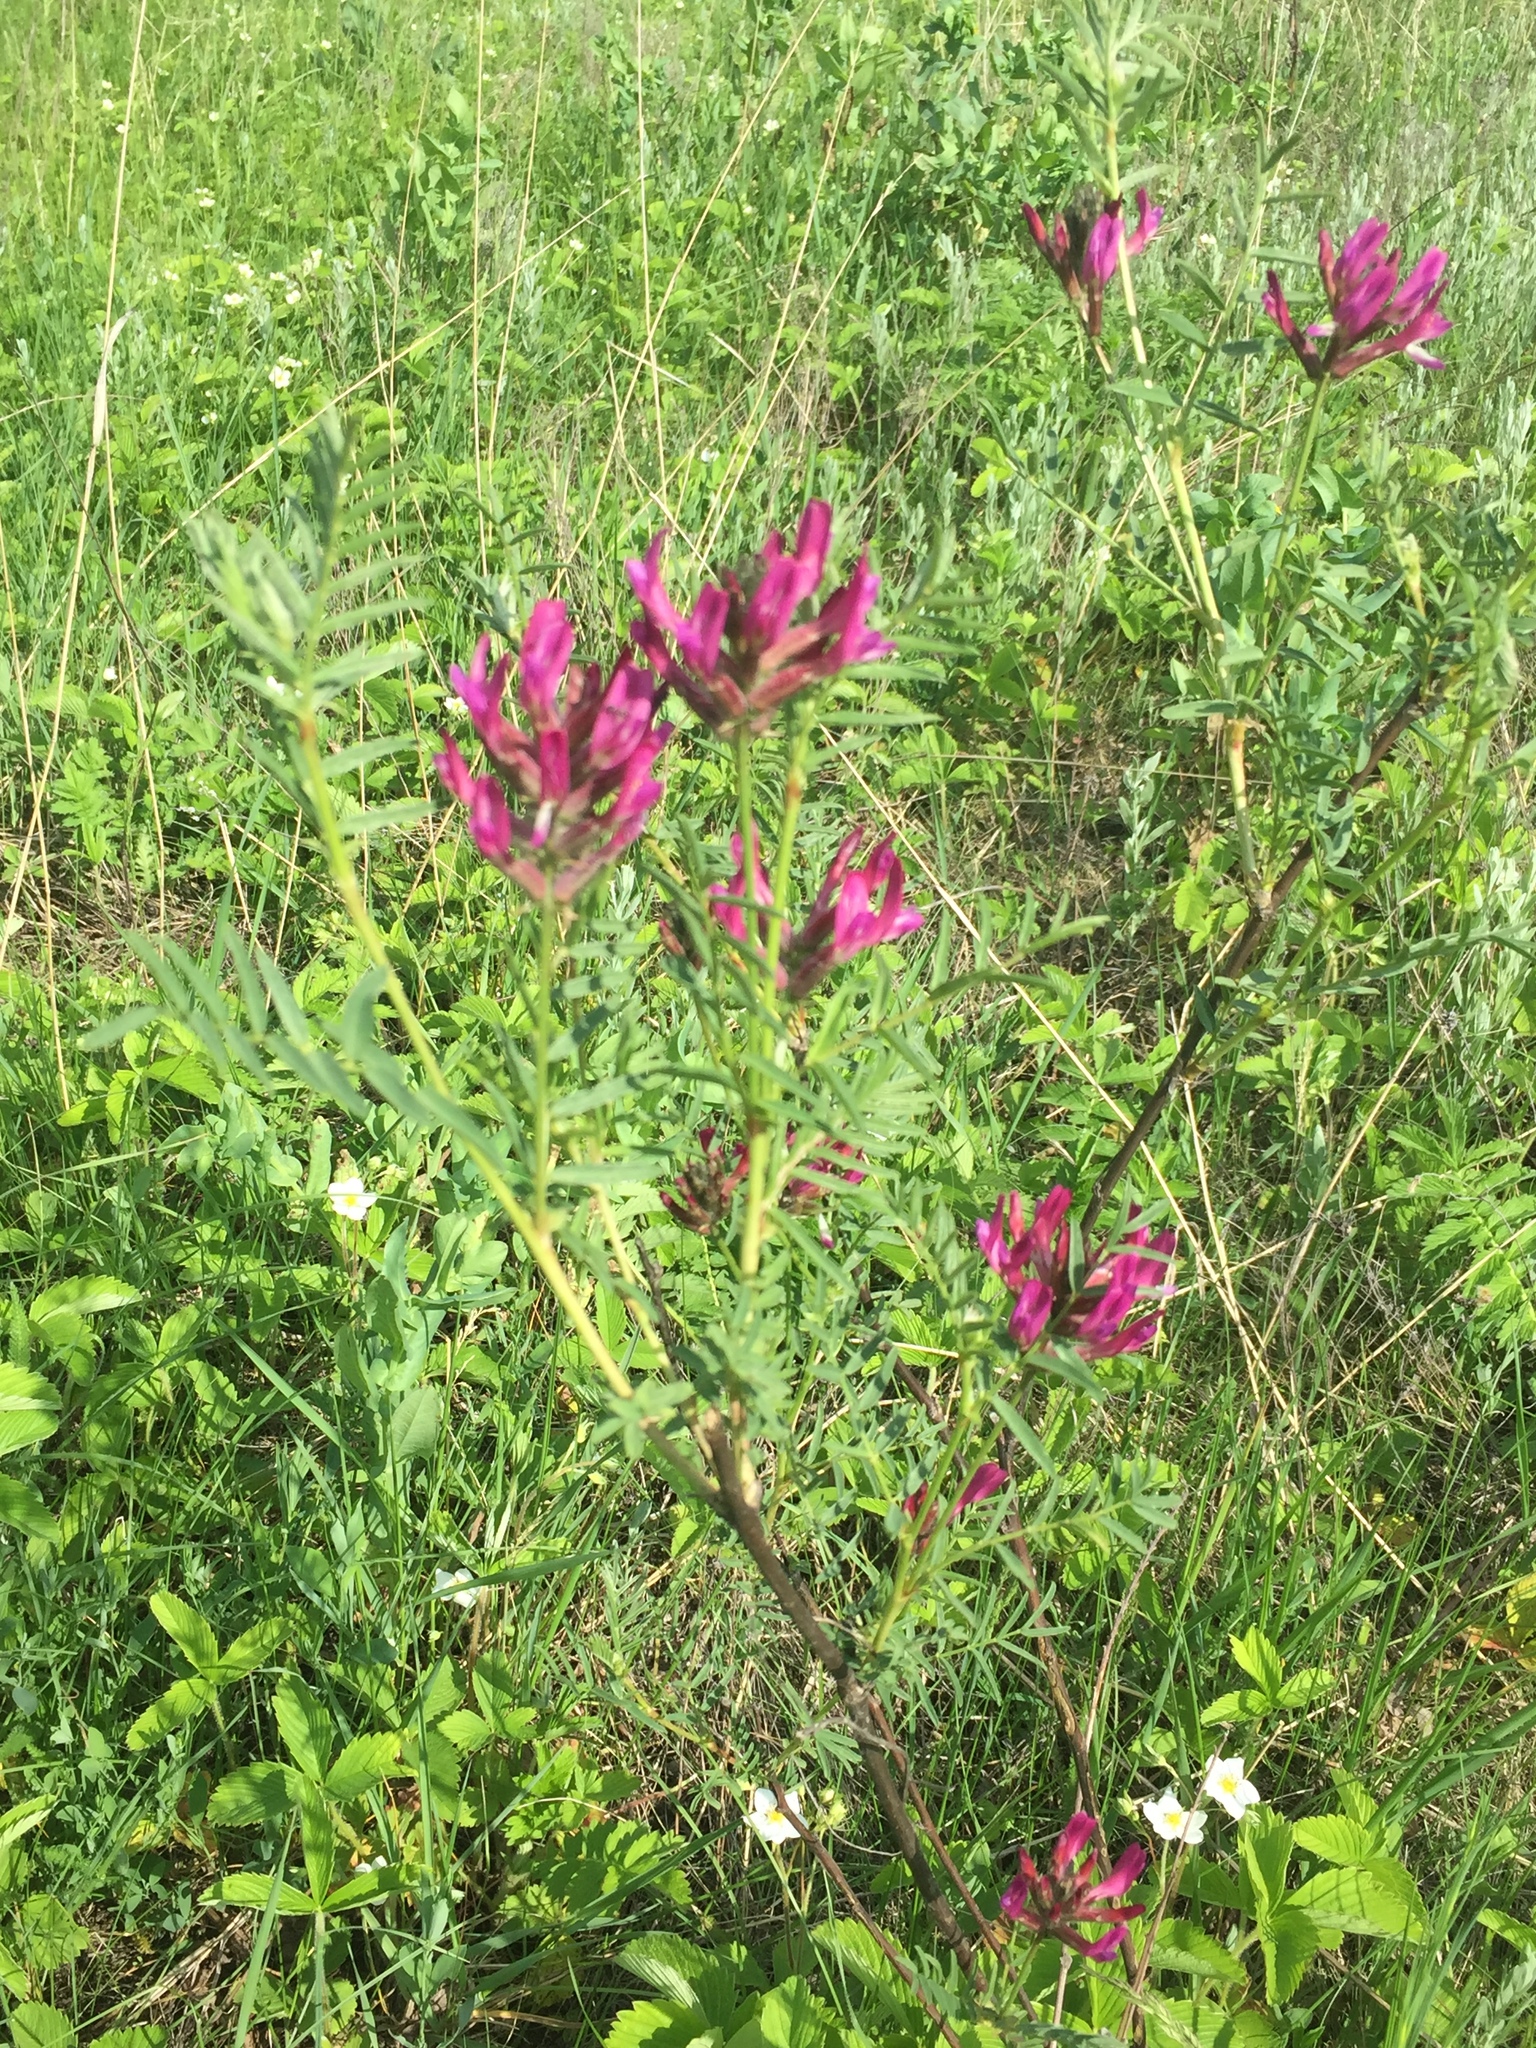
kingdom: Plantae
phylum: Tracheophyta
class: Magnoliopsida
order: Fabales
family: Fabaceae
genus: Astragalus
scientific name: Astragalus cornutus
